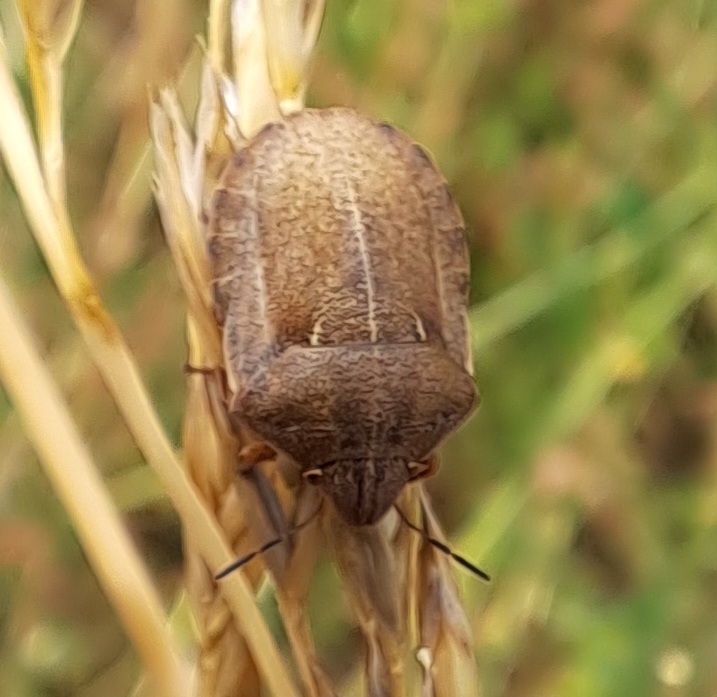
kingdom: Animalia
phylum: Arthropoda
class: Insecta
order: Hemiptera
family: Scutelleridae
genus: Eurygaster
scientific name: Eurygaster testudinaria
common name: Tortoise bug
